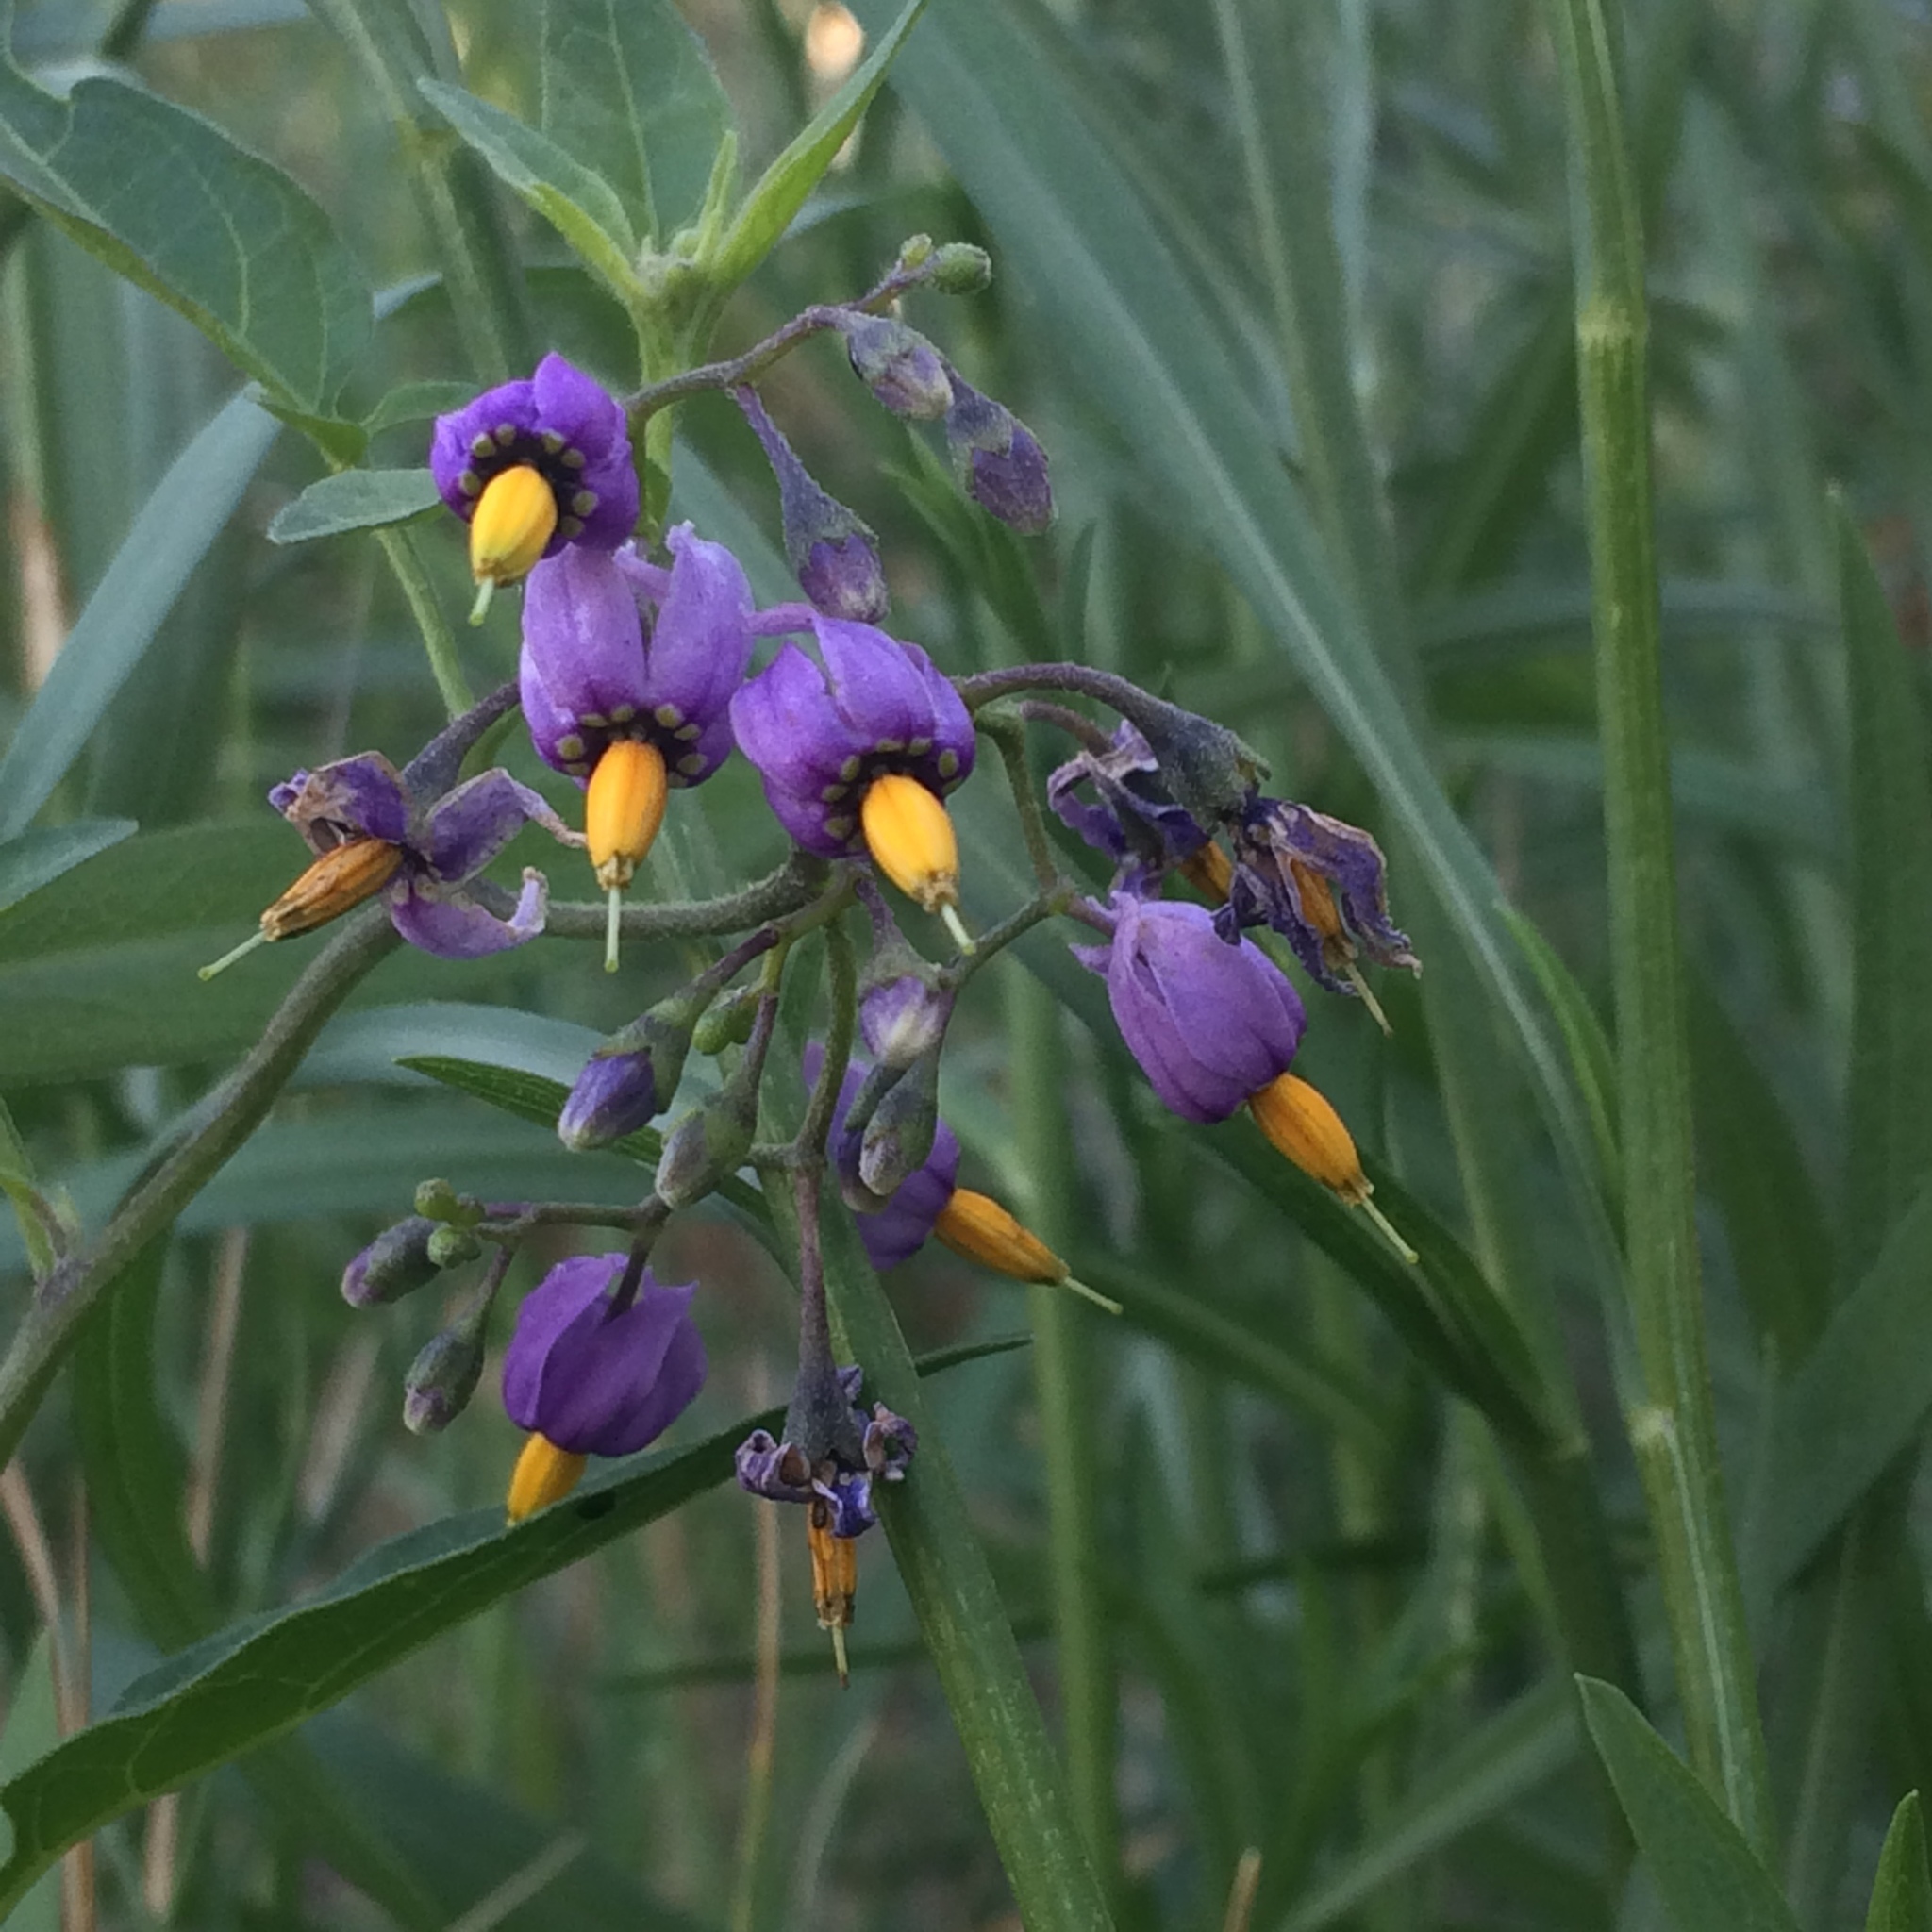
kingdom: Plantae
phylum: Tracheophyta
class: Magnoliopsida
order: Solanales
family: Solanaceae
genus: Solanum
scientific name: Solanum dulcamara
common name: Climbing nightshade
